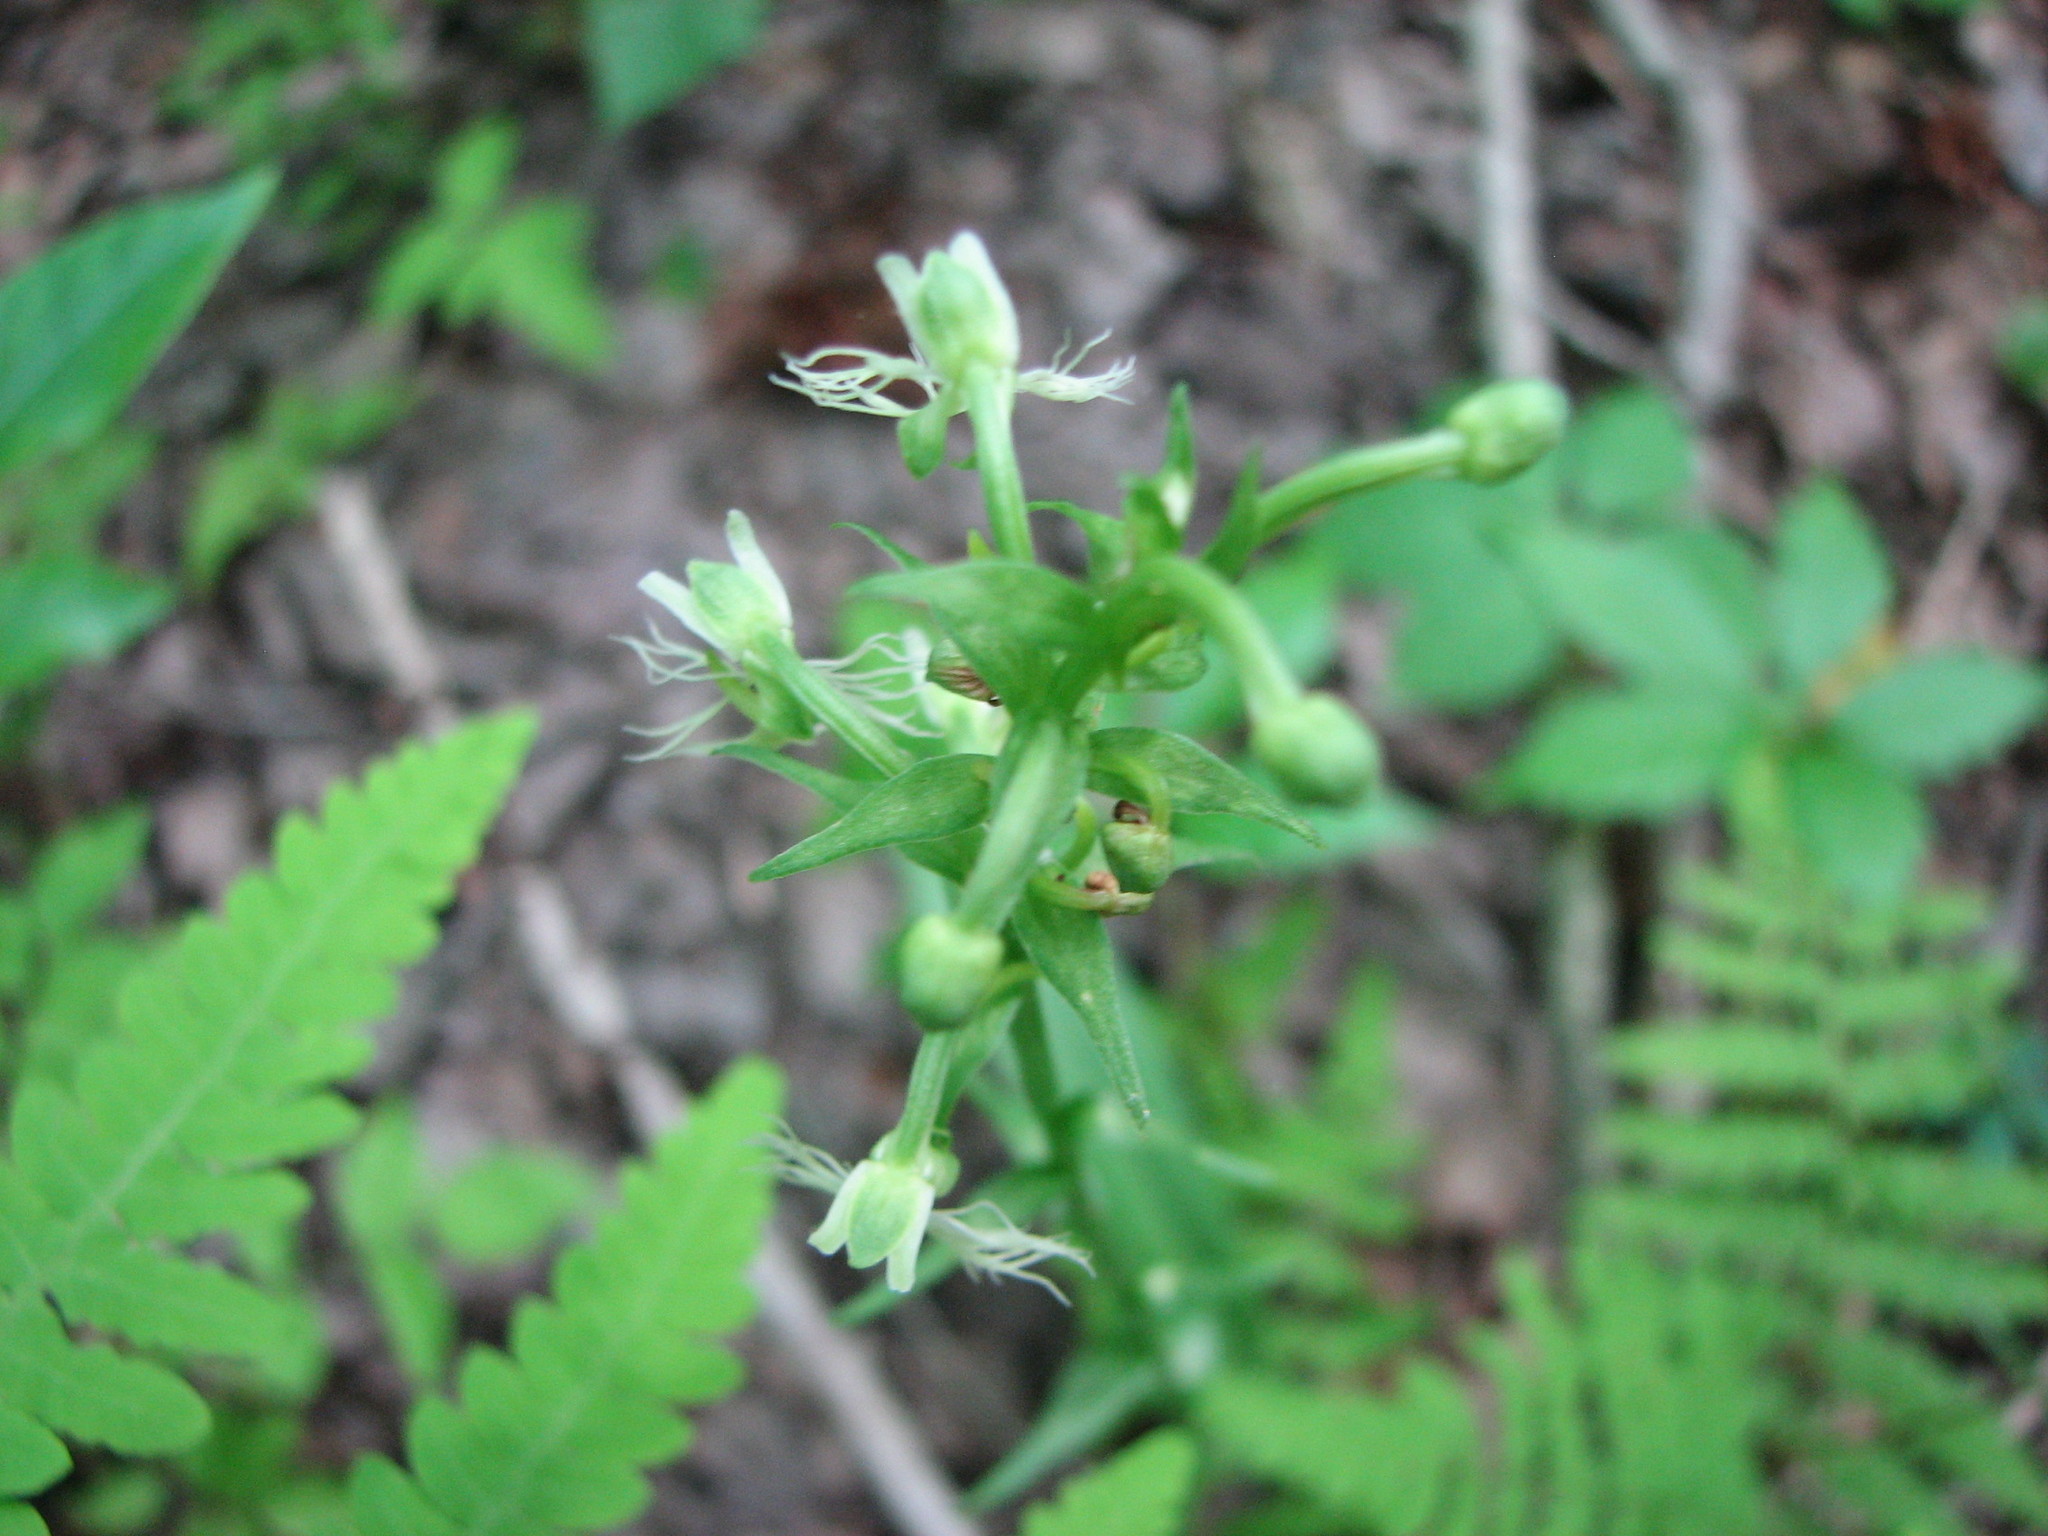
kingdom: Plantae
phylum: Tracheophyta
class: Liliopsida
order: Asparagales
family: Orchidaceae
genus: Platanthera
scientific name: Platanthera lacera
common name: Green fringed orchid
